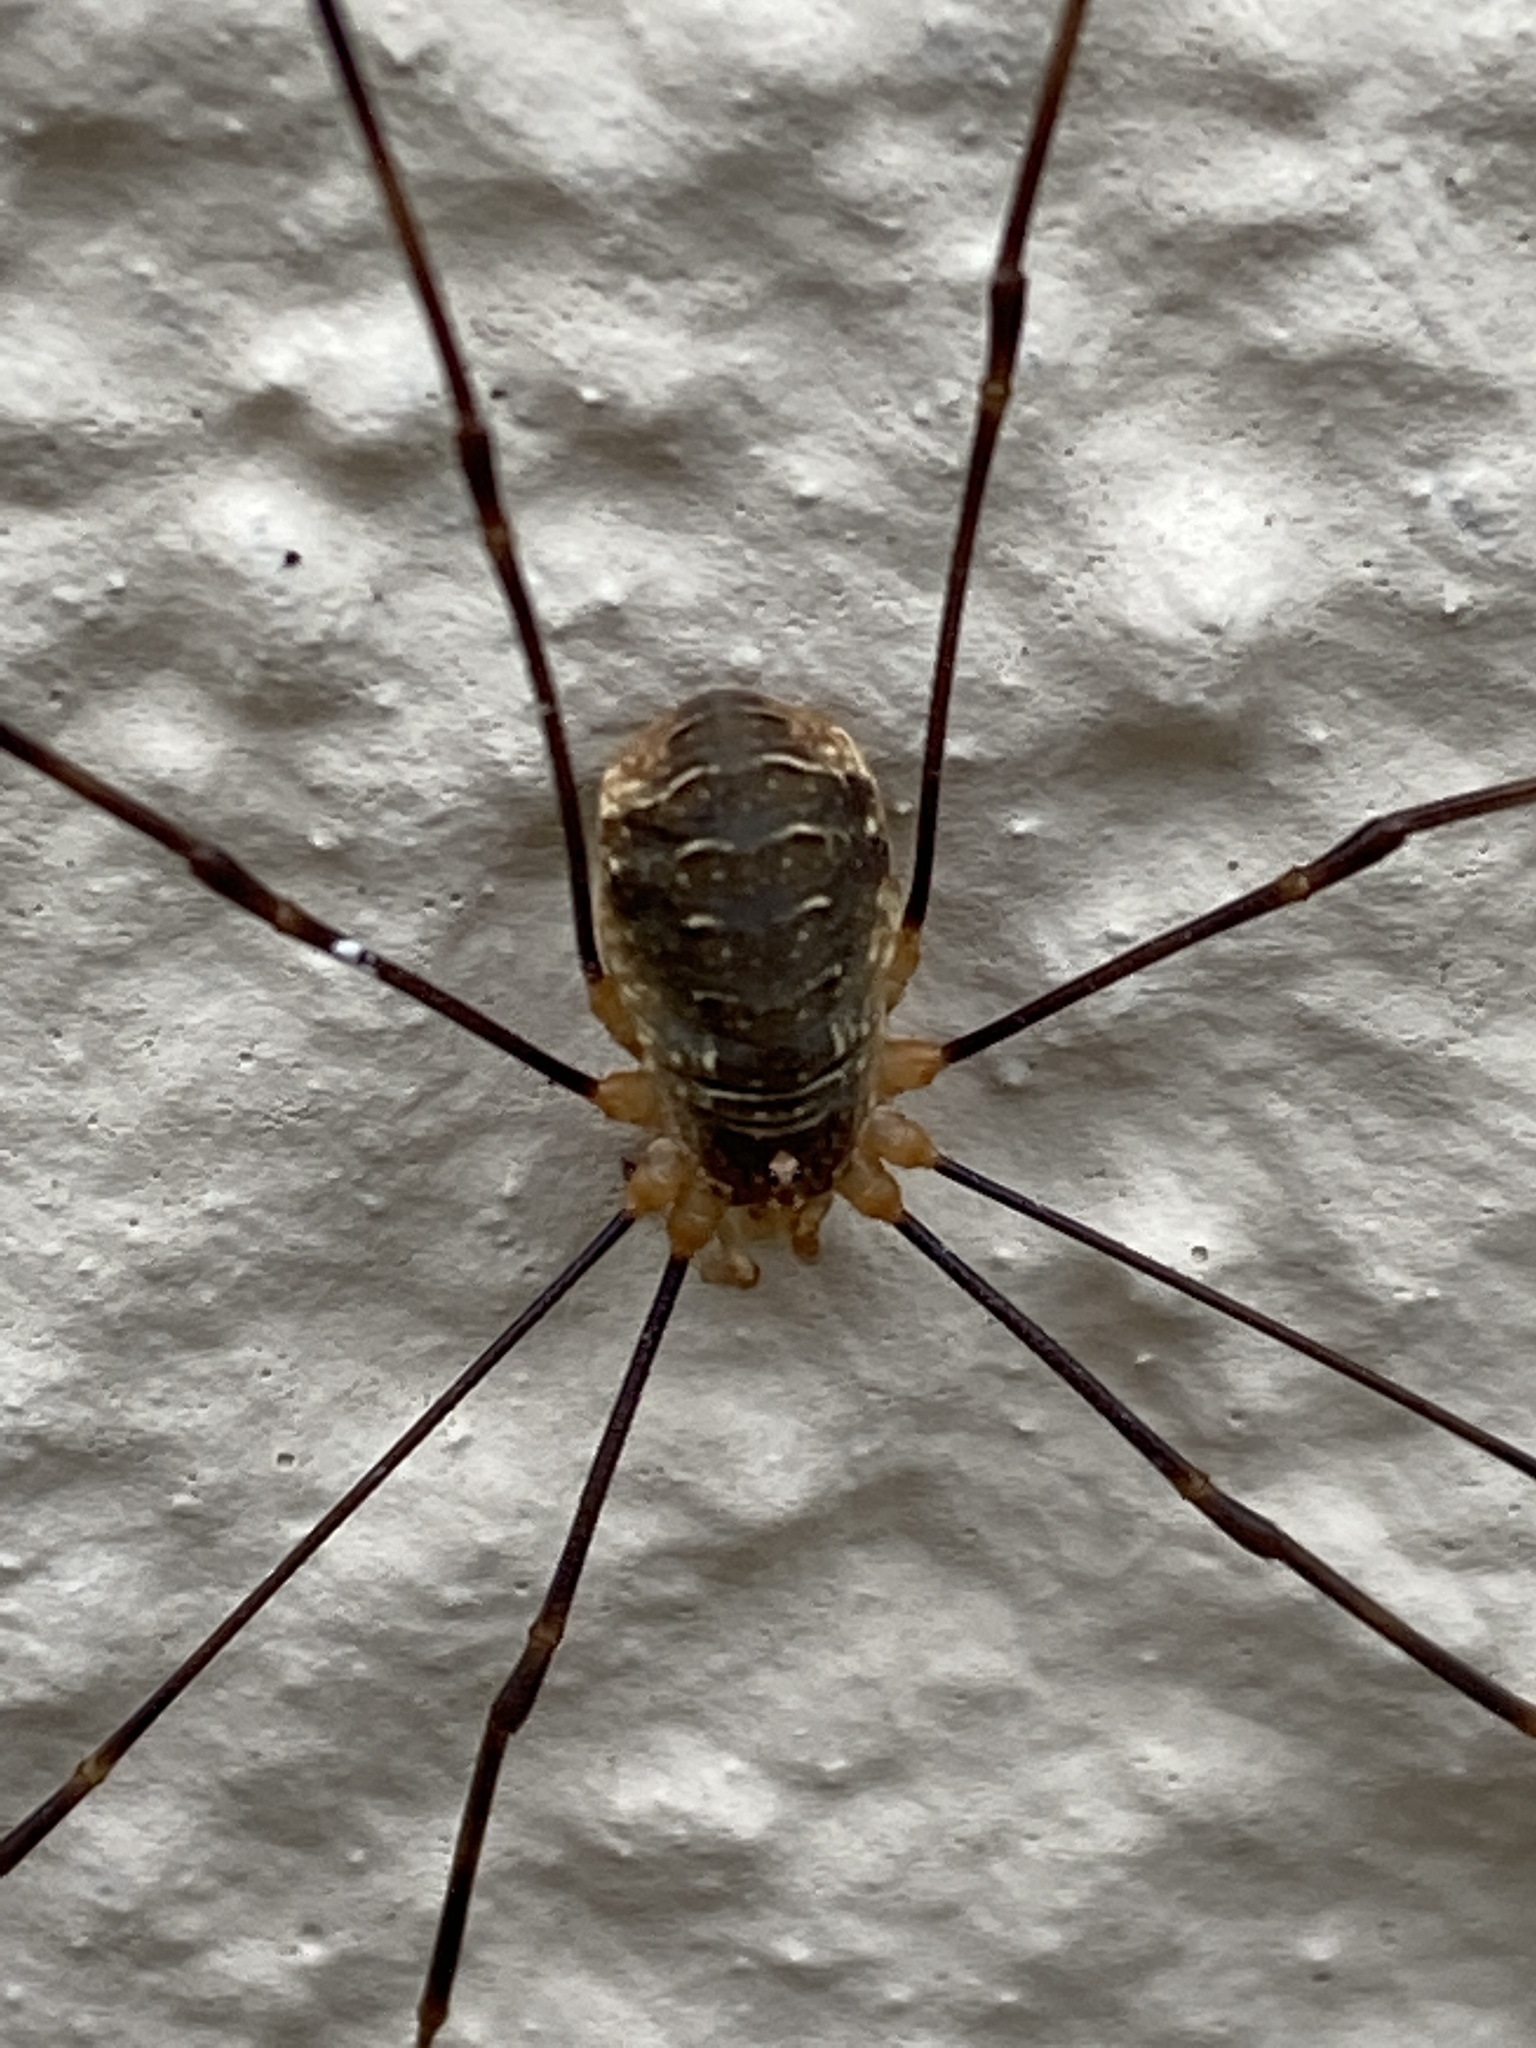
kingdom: Animalia
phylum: Arthropoda
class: Arachnida
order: Opiliones
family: Phalangiidae
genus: Opilio
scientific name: Opilio canestrinii
